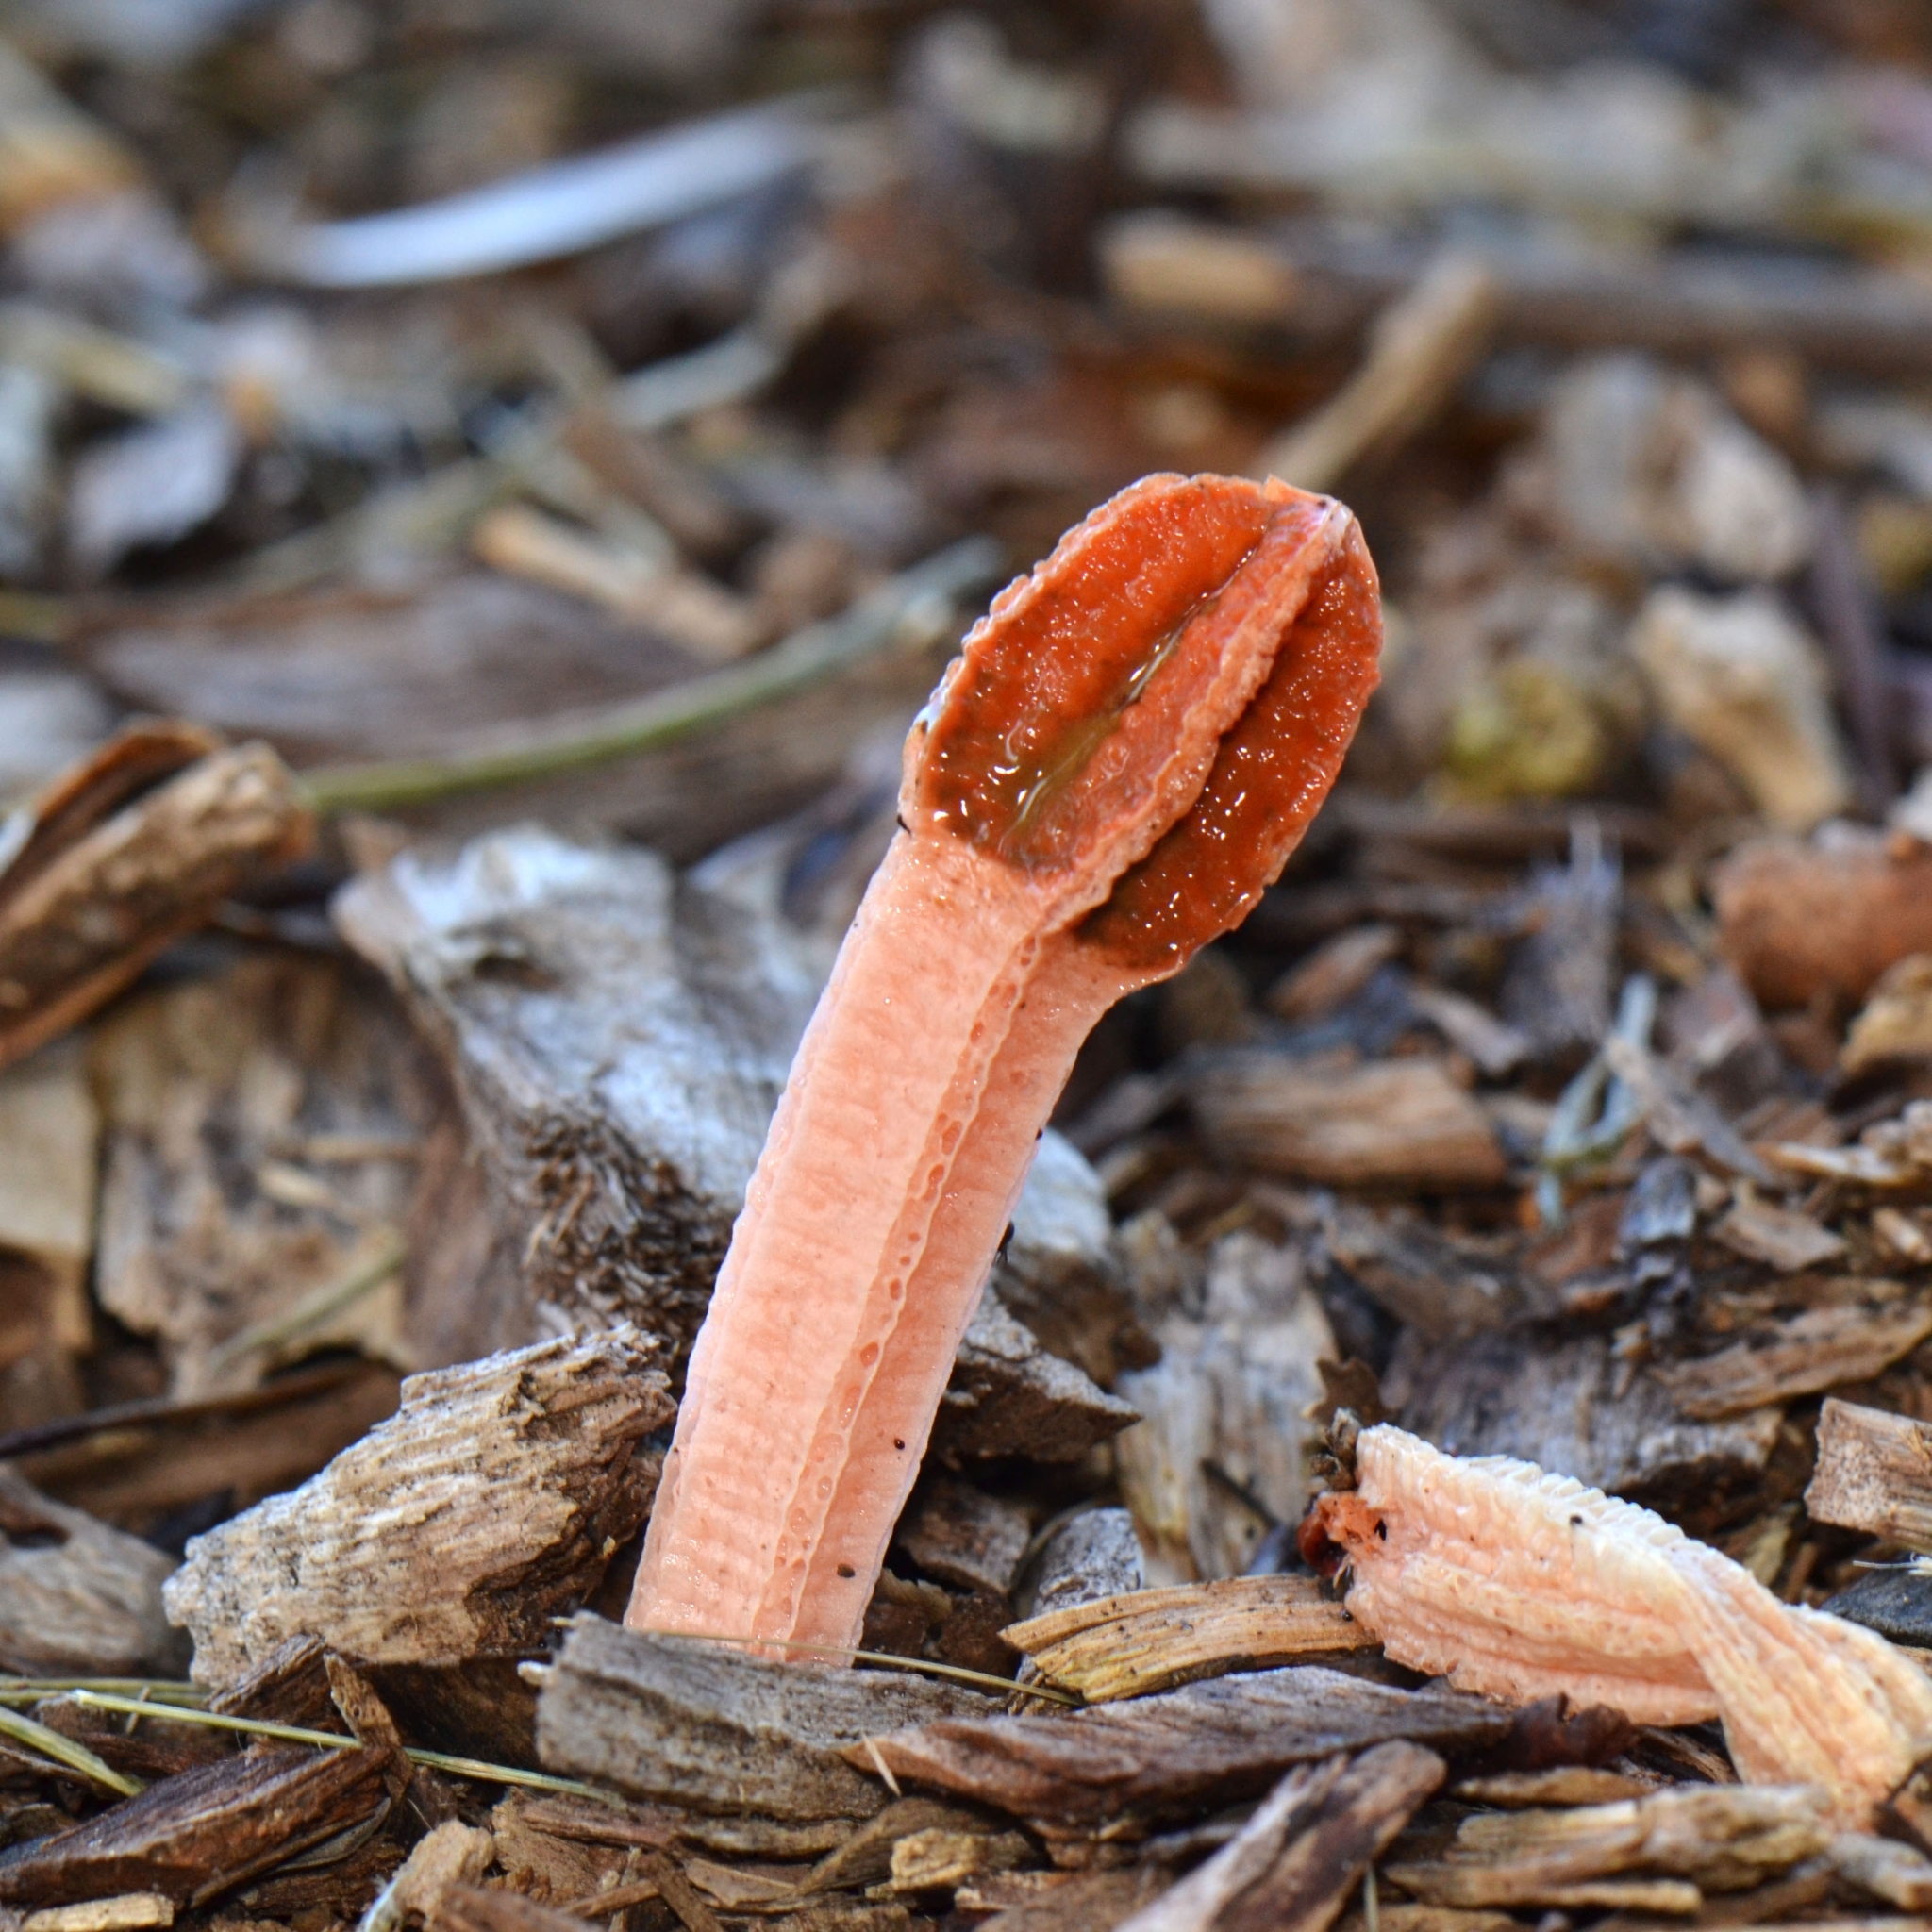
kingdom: Fungi
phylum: Basidiomycota
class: Agaricomycetes
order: Phallales
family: Phallaceae
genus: Lysurus
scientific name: Lysurus mokusin
